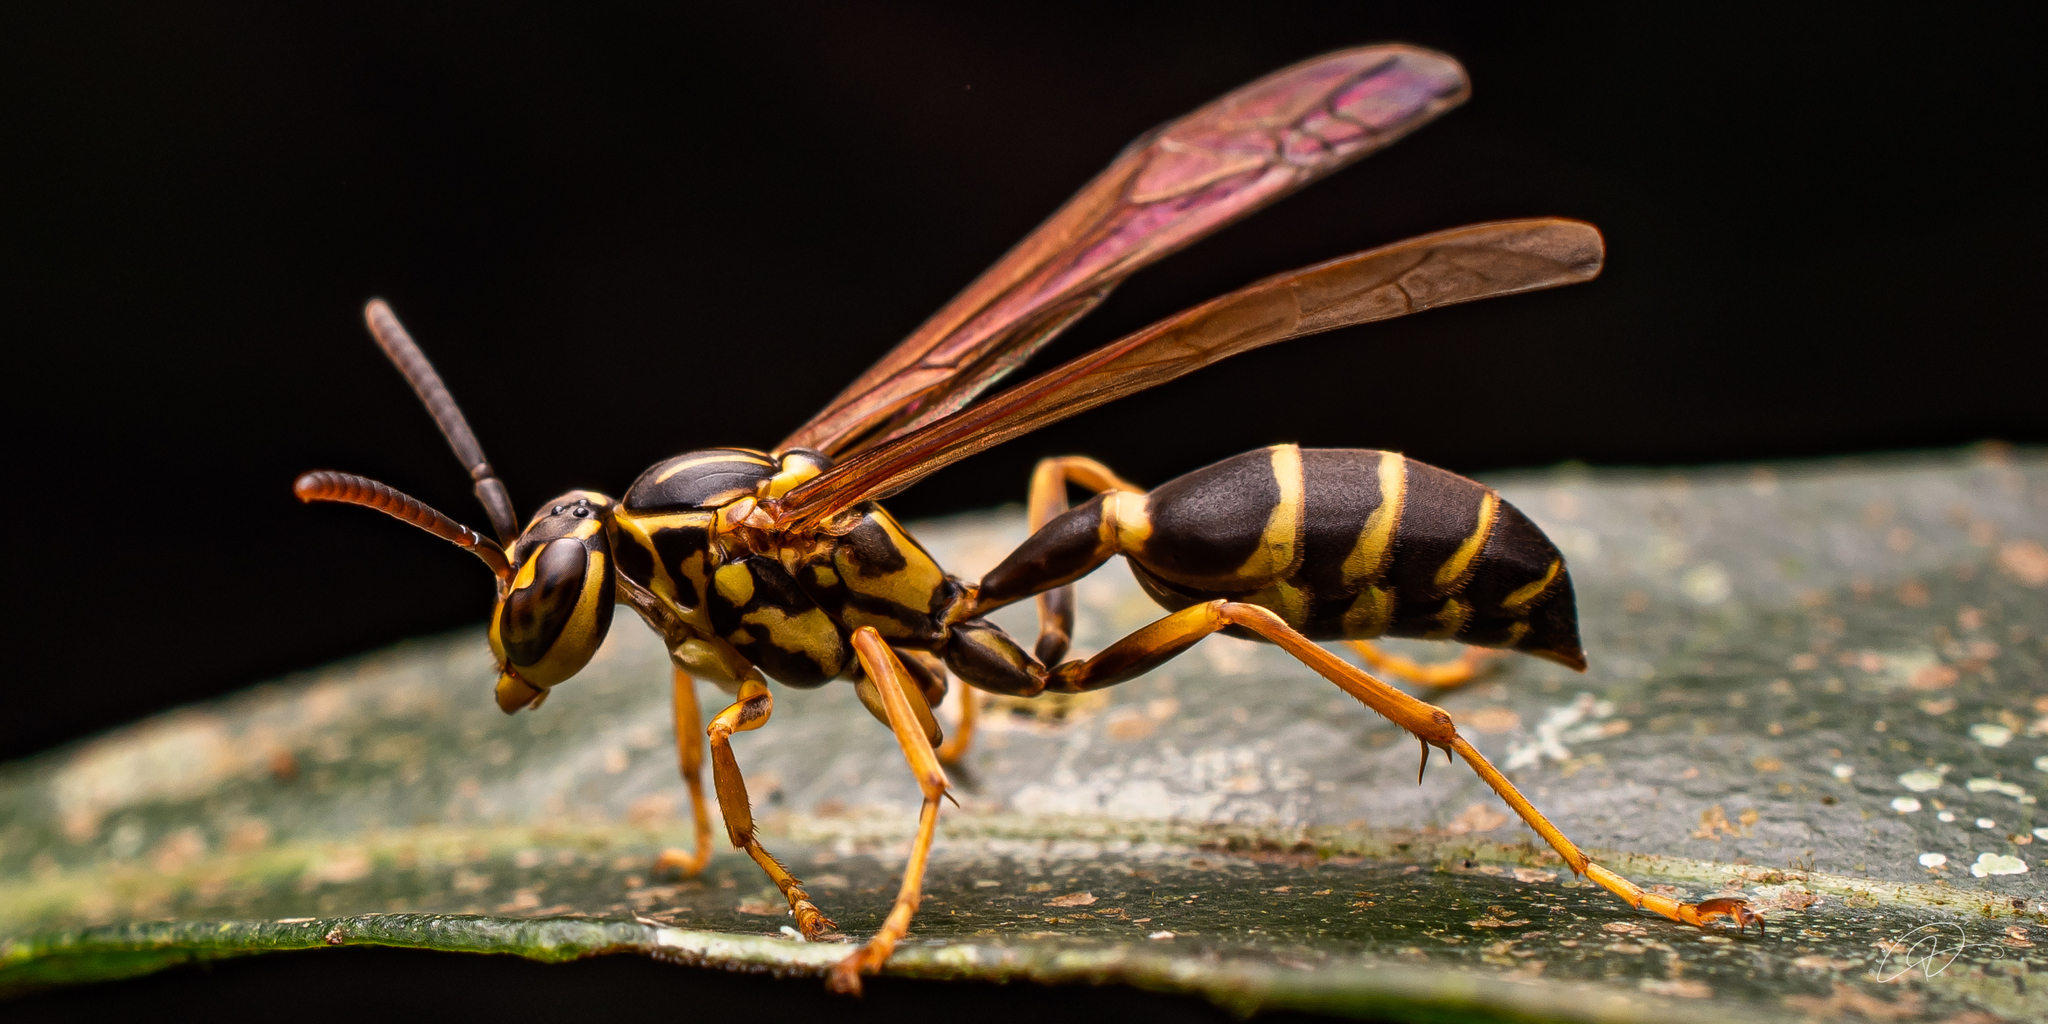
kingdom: Animalia
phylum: Arthropoda
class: Insecta
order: Hymenoptera
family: Vespidae
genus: Agelaia
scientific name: Agelaia multipicta
